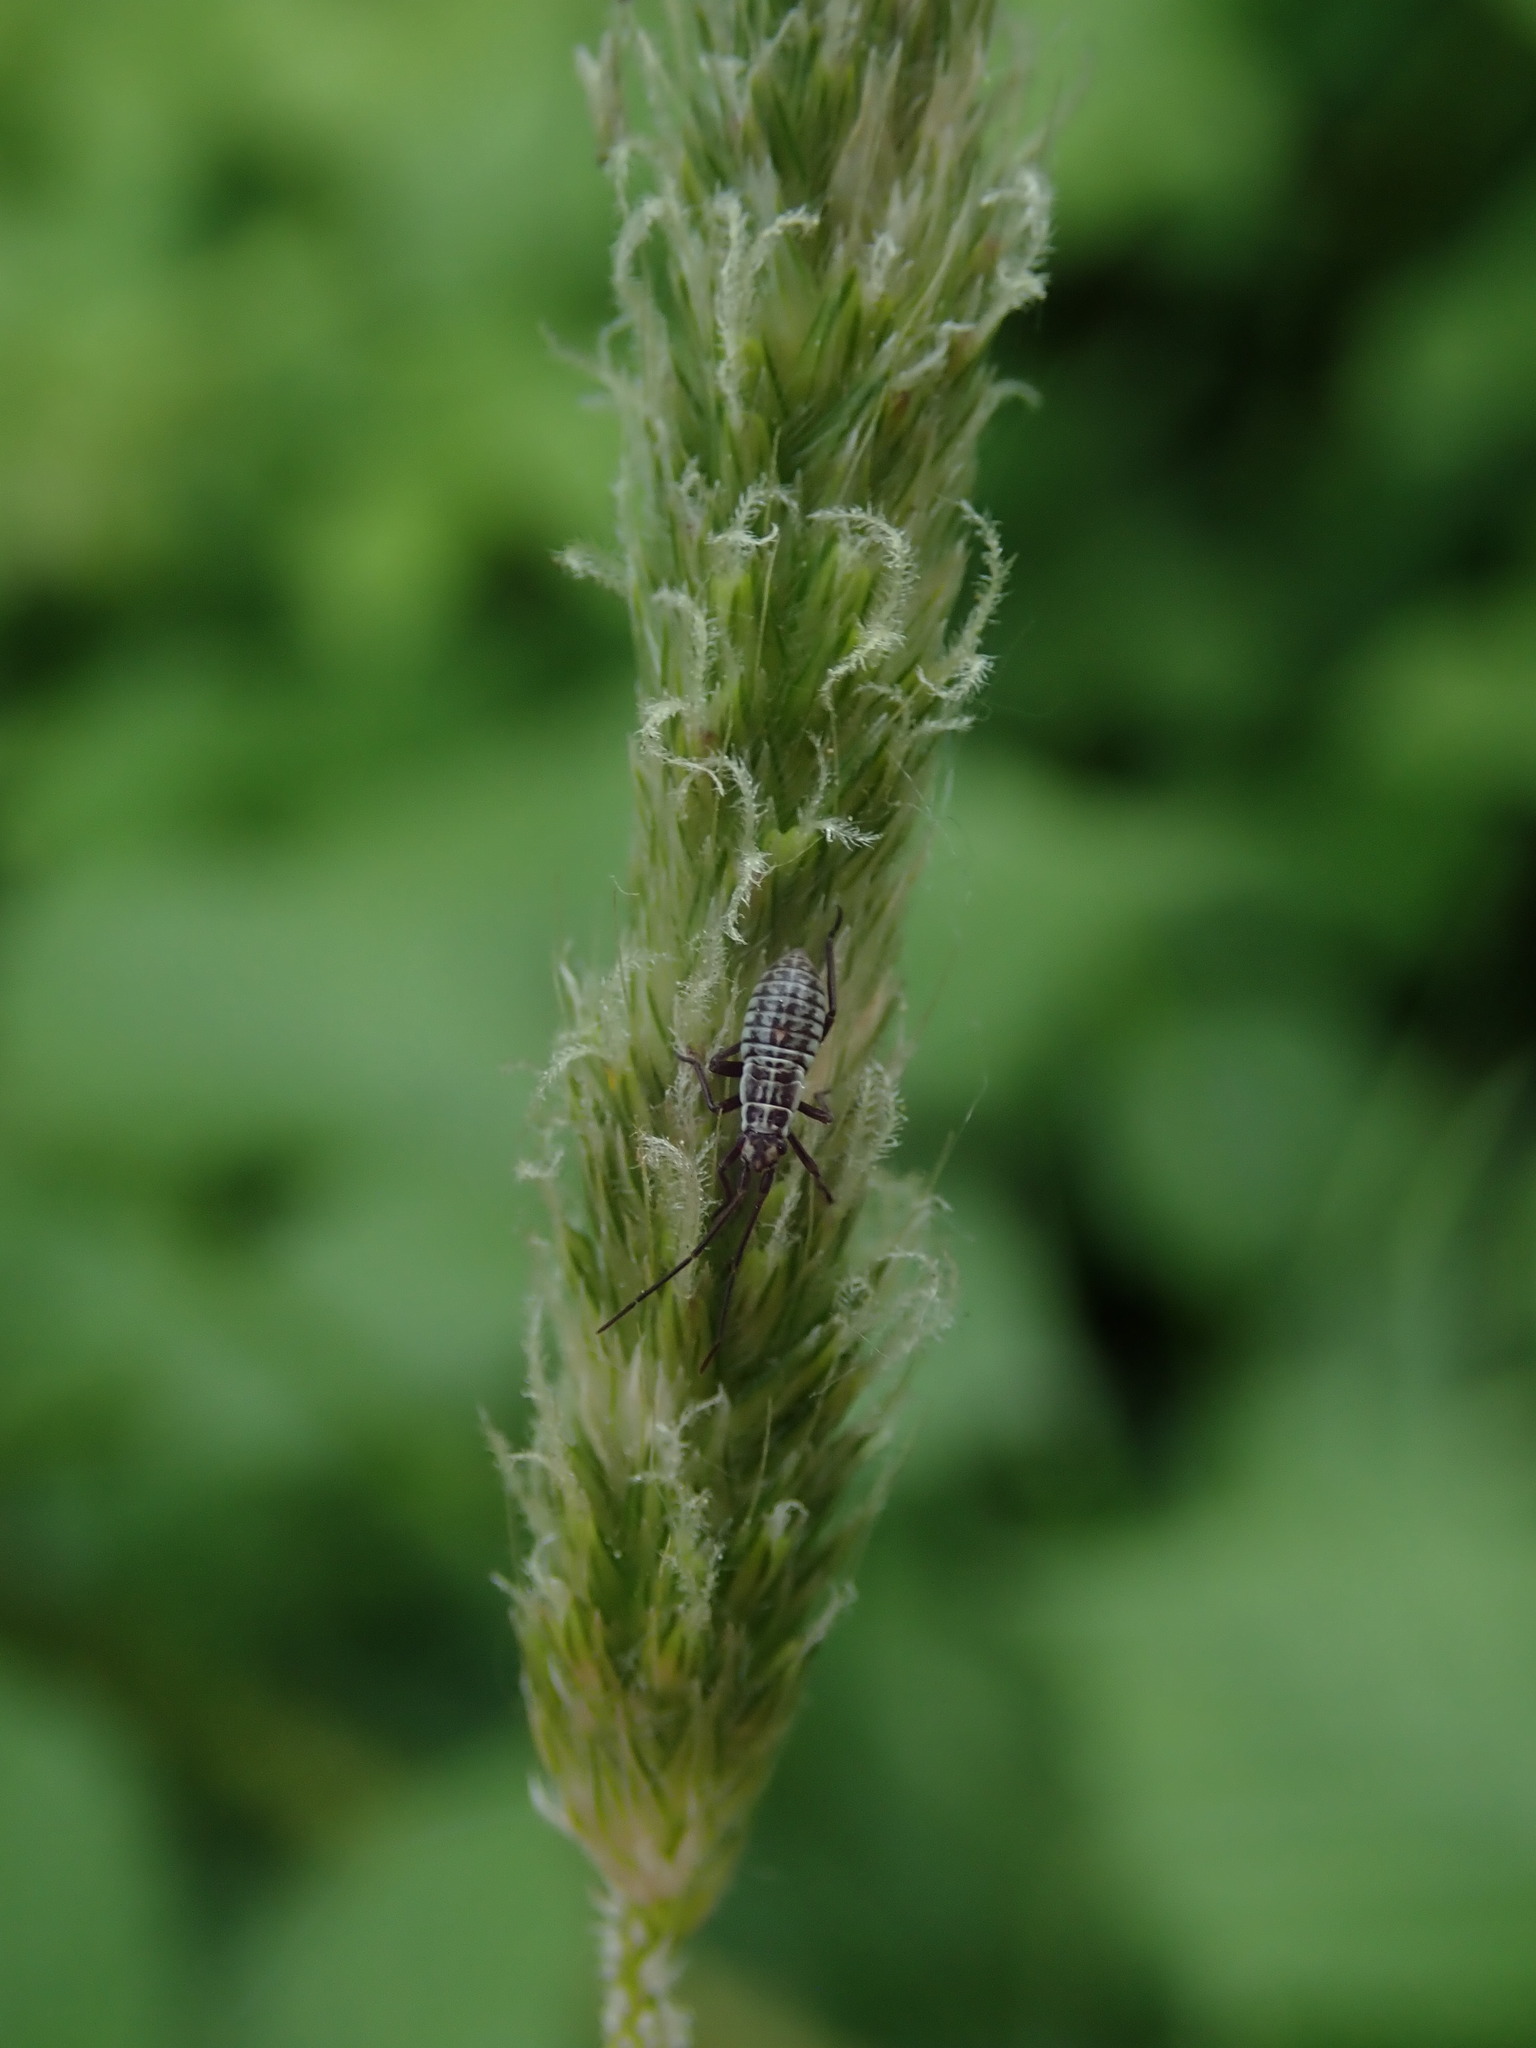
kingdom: Animalia
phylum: Arthropoda
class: Insecta
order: Hemiptera
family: Miridae
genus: Leptopterna
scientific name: Leptopterna dolabrata
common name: Meadow plant bug
